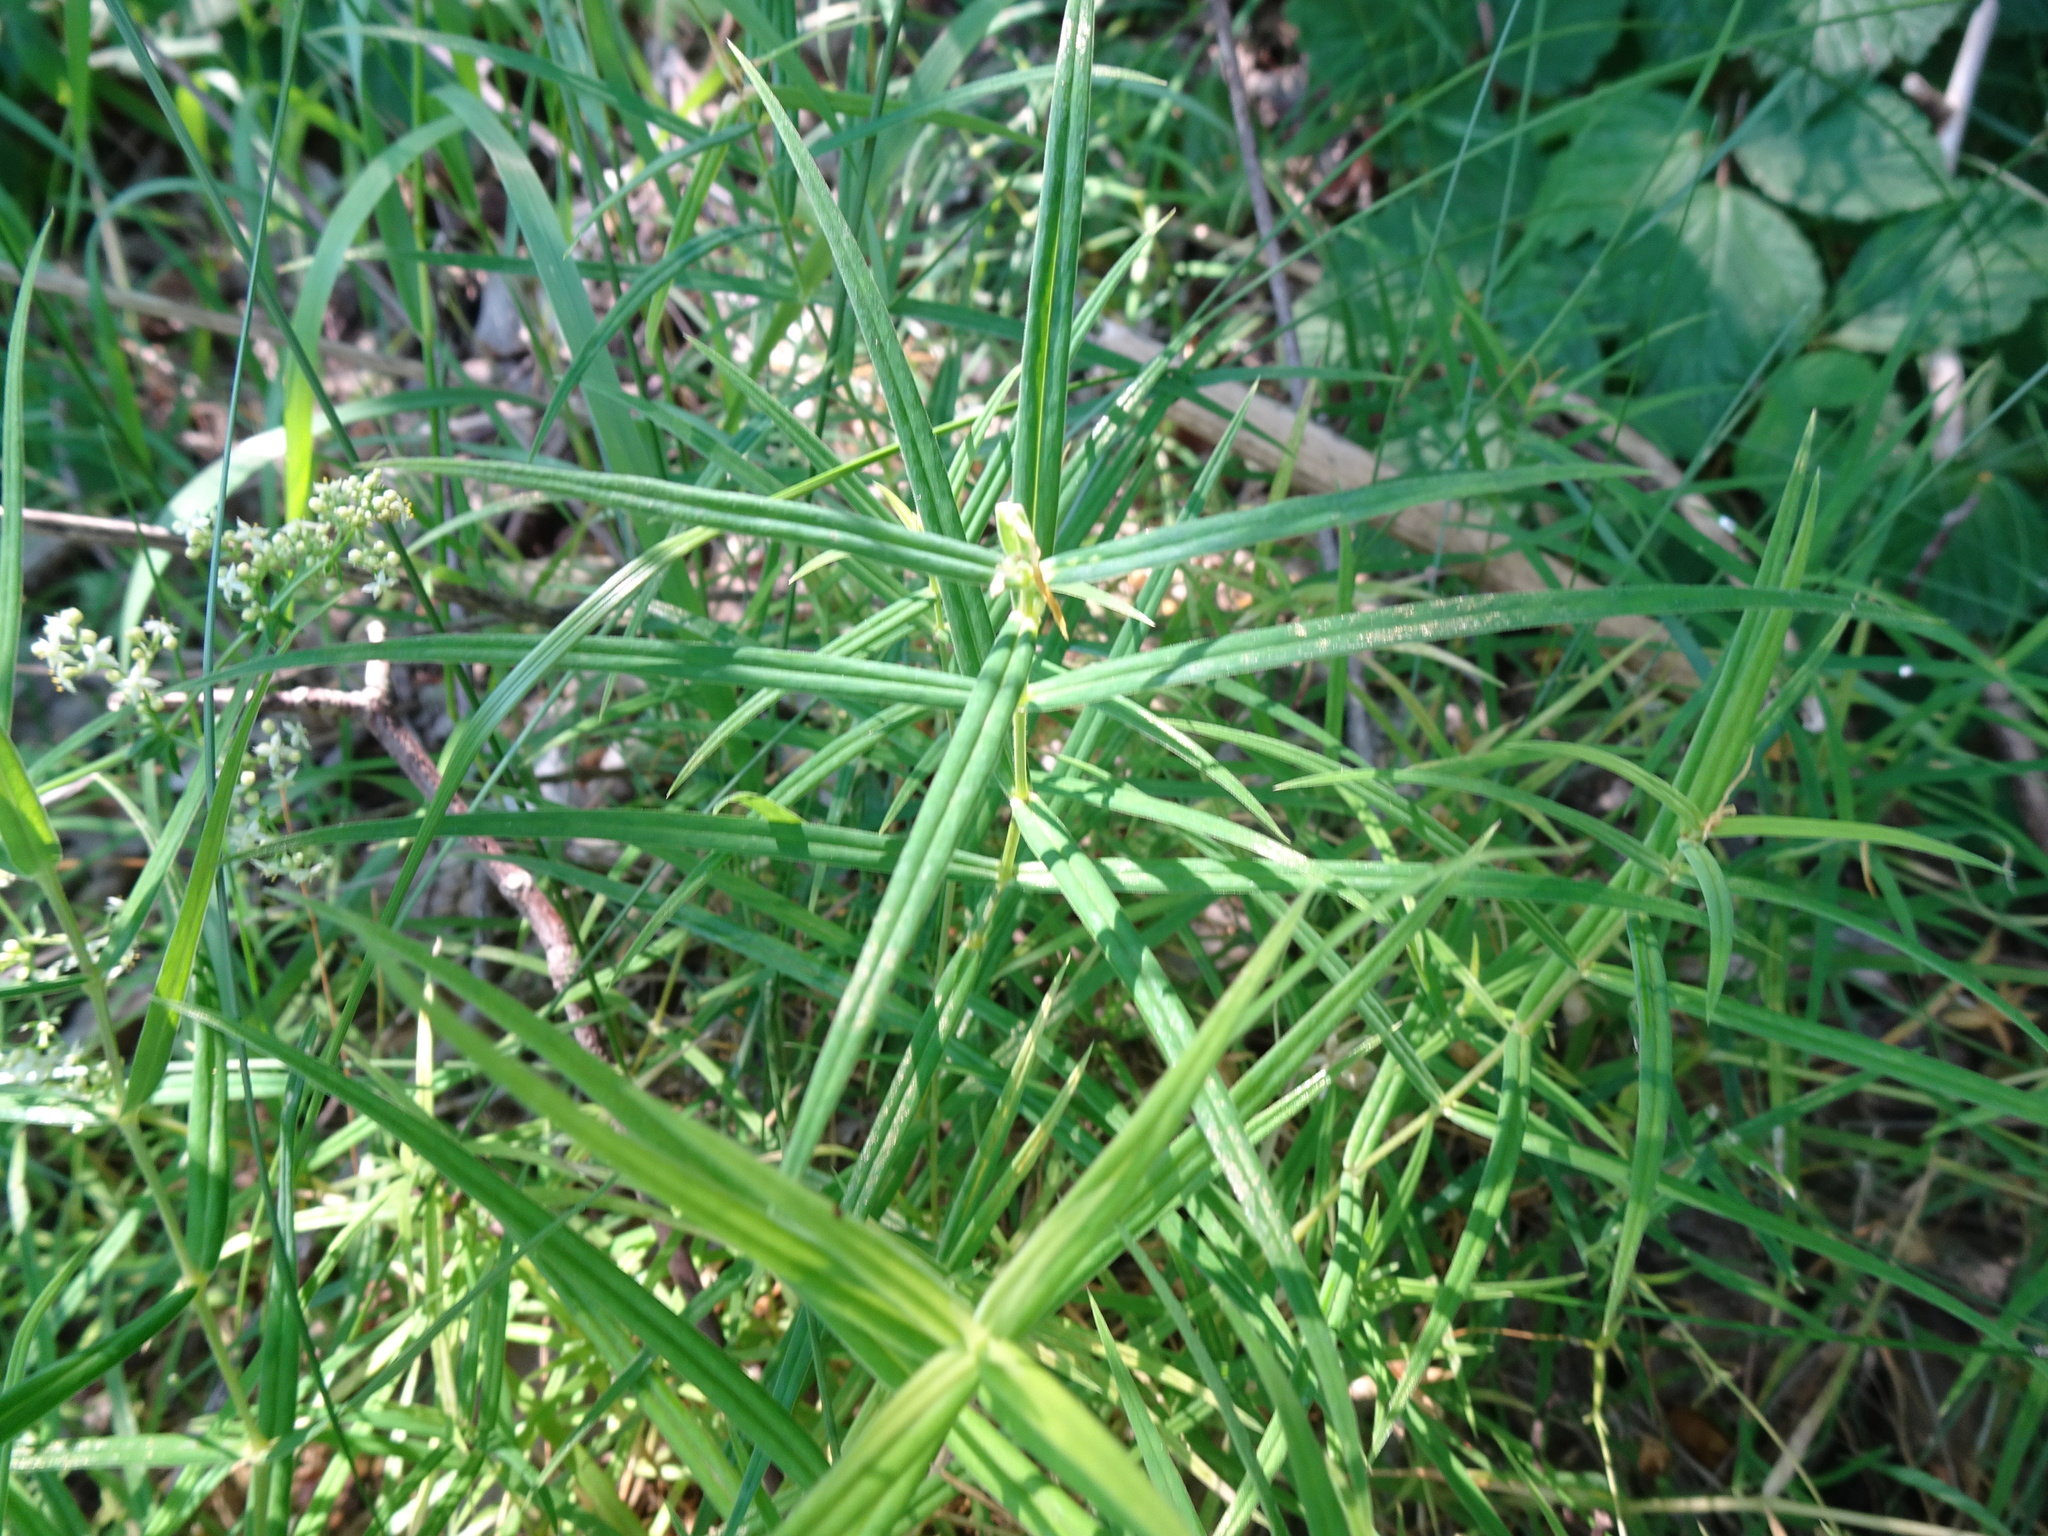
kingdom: Plantae
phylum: Tracheophyta
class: Magnoliopsida
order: Caryophyllales
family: Caryophyllaceae
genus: Rabelera
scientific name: Rabelera holostea
